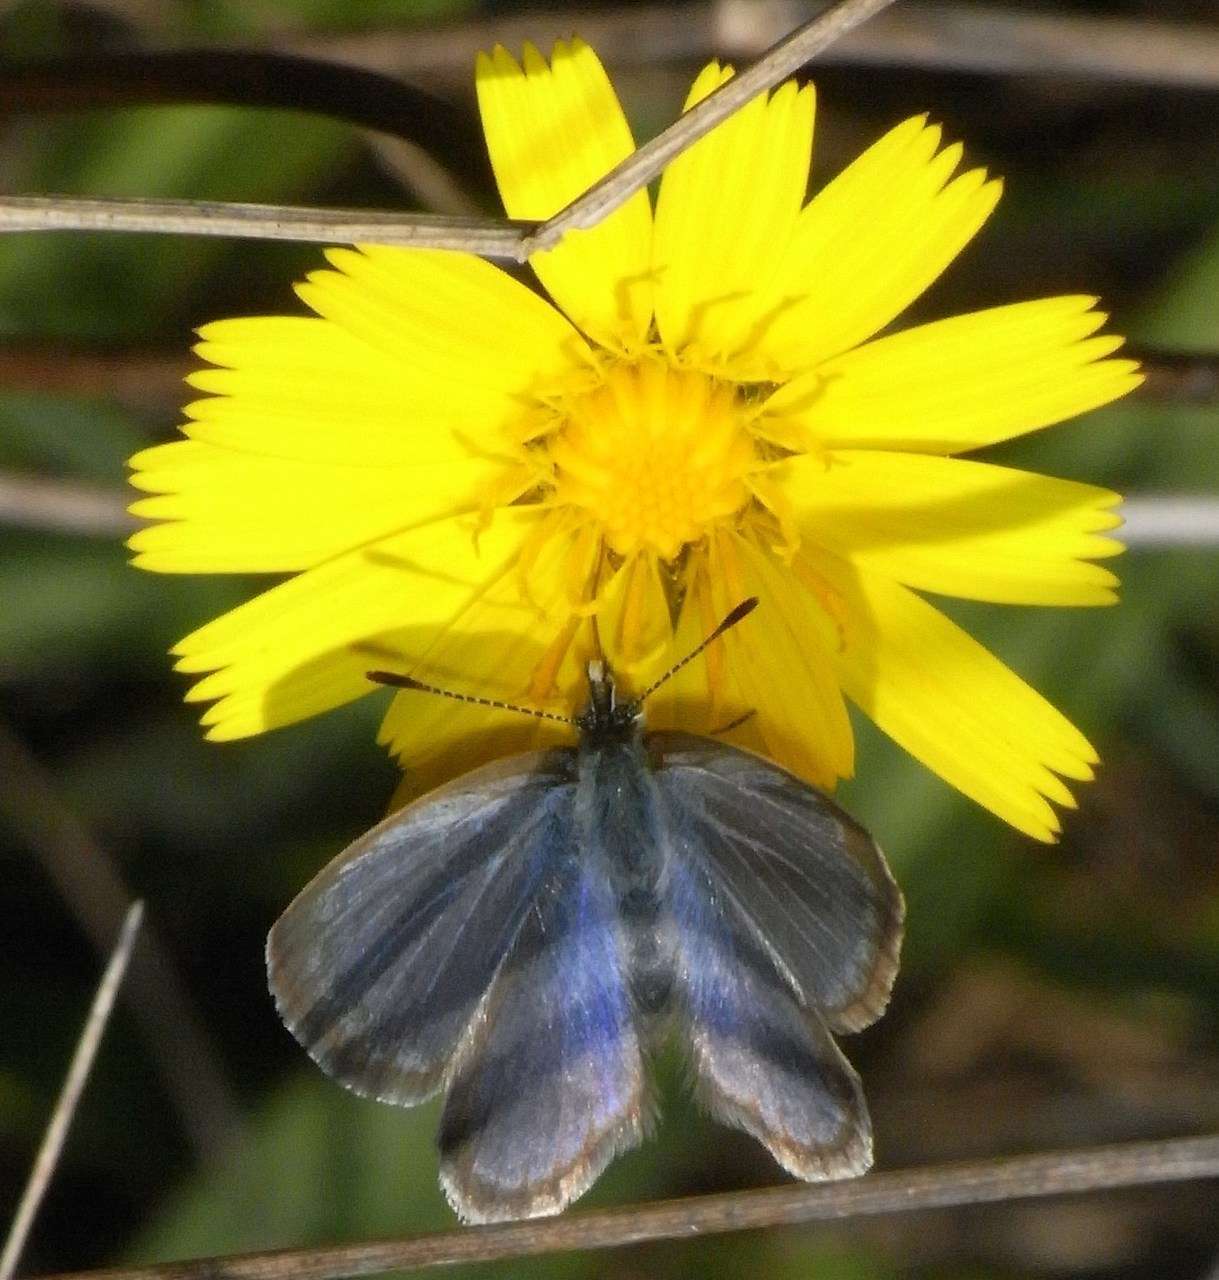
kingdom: Animalia
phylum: Arthropoda
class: Insecta
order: Lepidoptera
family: Lycaenidae
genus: Zizina
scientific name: Zizina labradus
